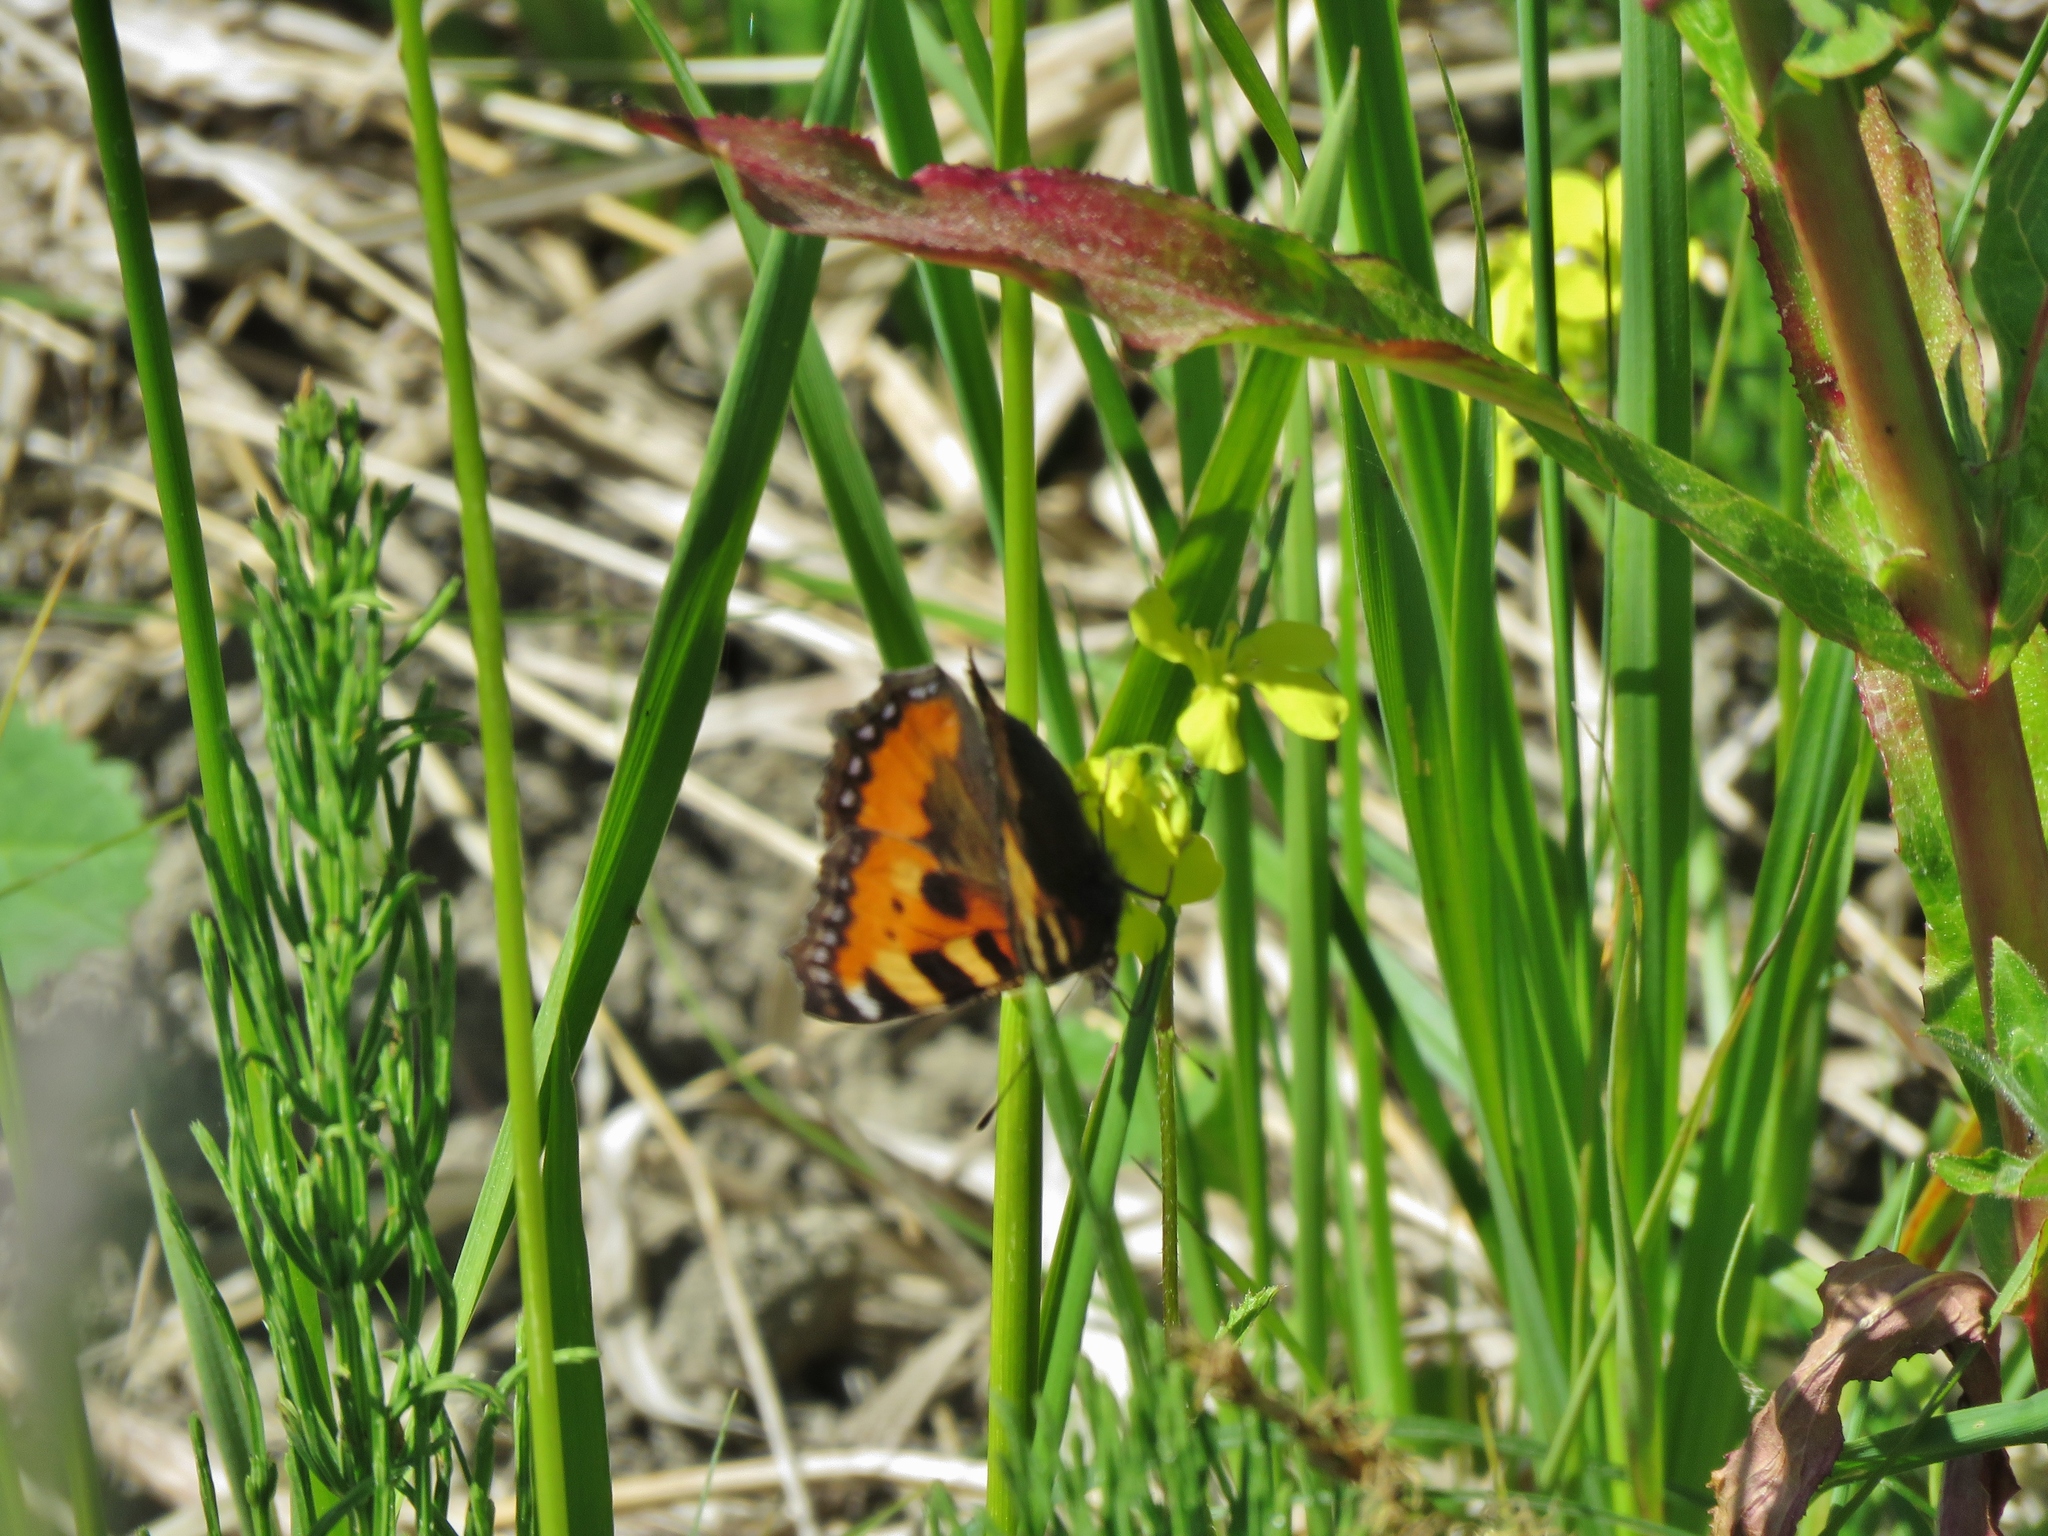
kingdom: Animalia
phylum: Arthropoda
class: Insecta
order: Lepidoptera
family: Nymphalidae
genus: Aglais
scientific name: Aglais urticae
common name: Small tortoiseshell
